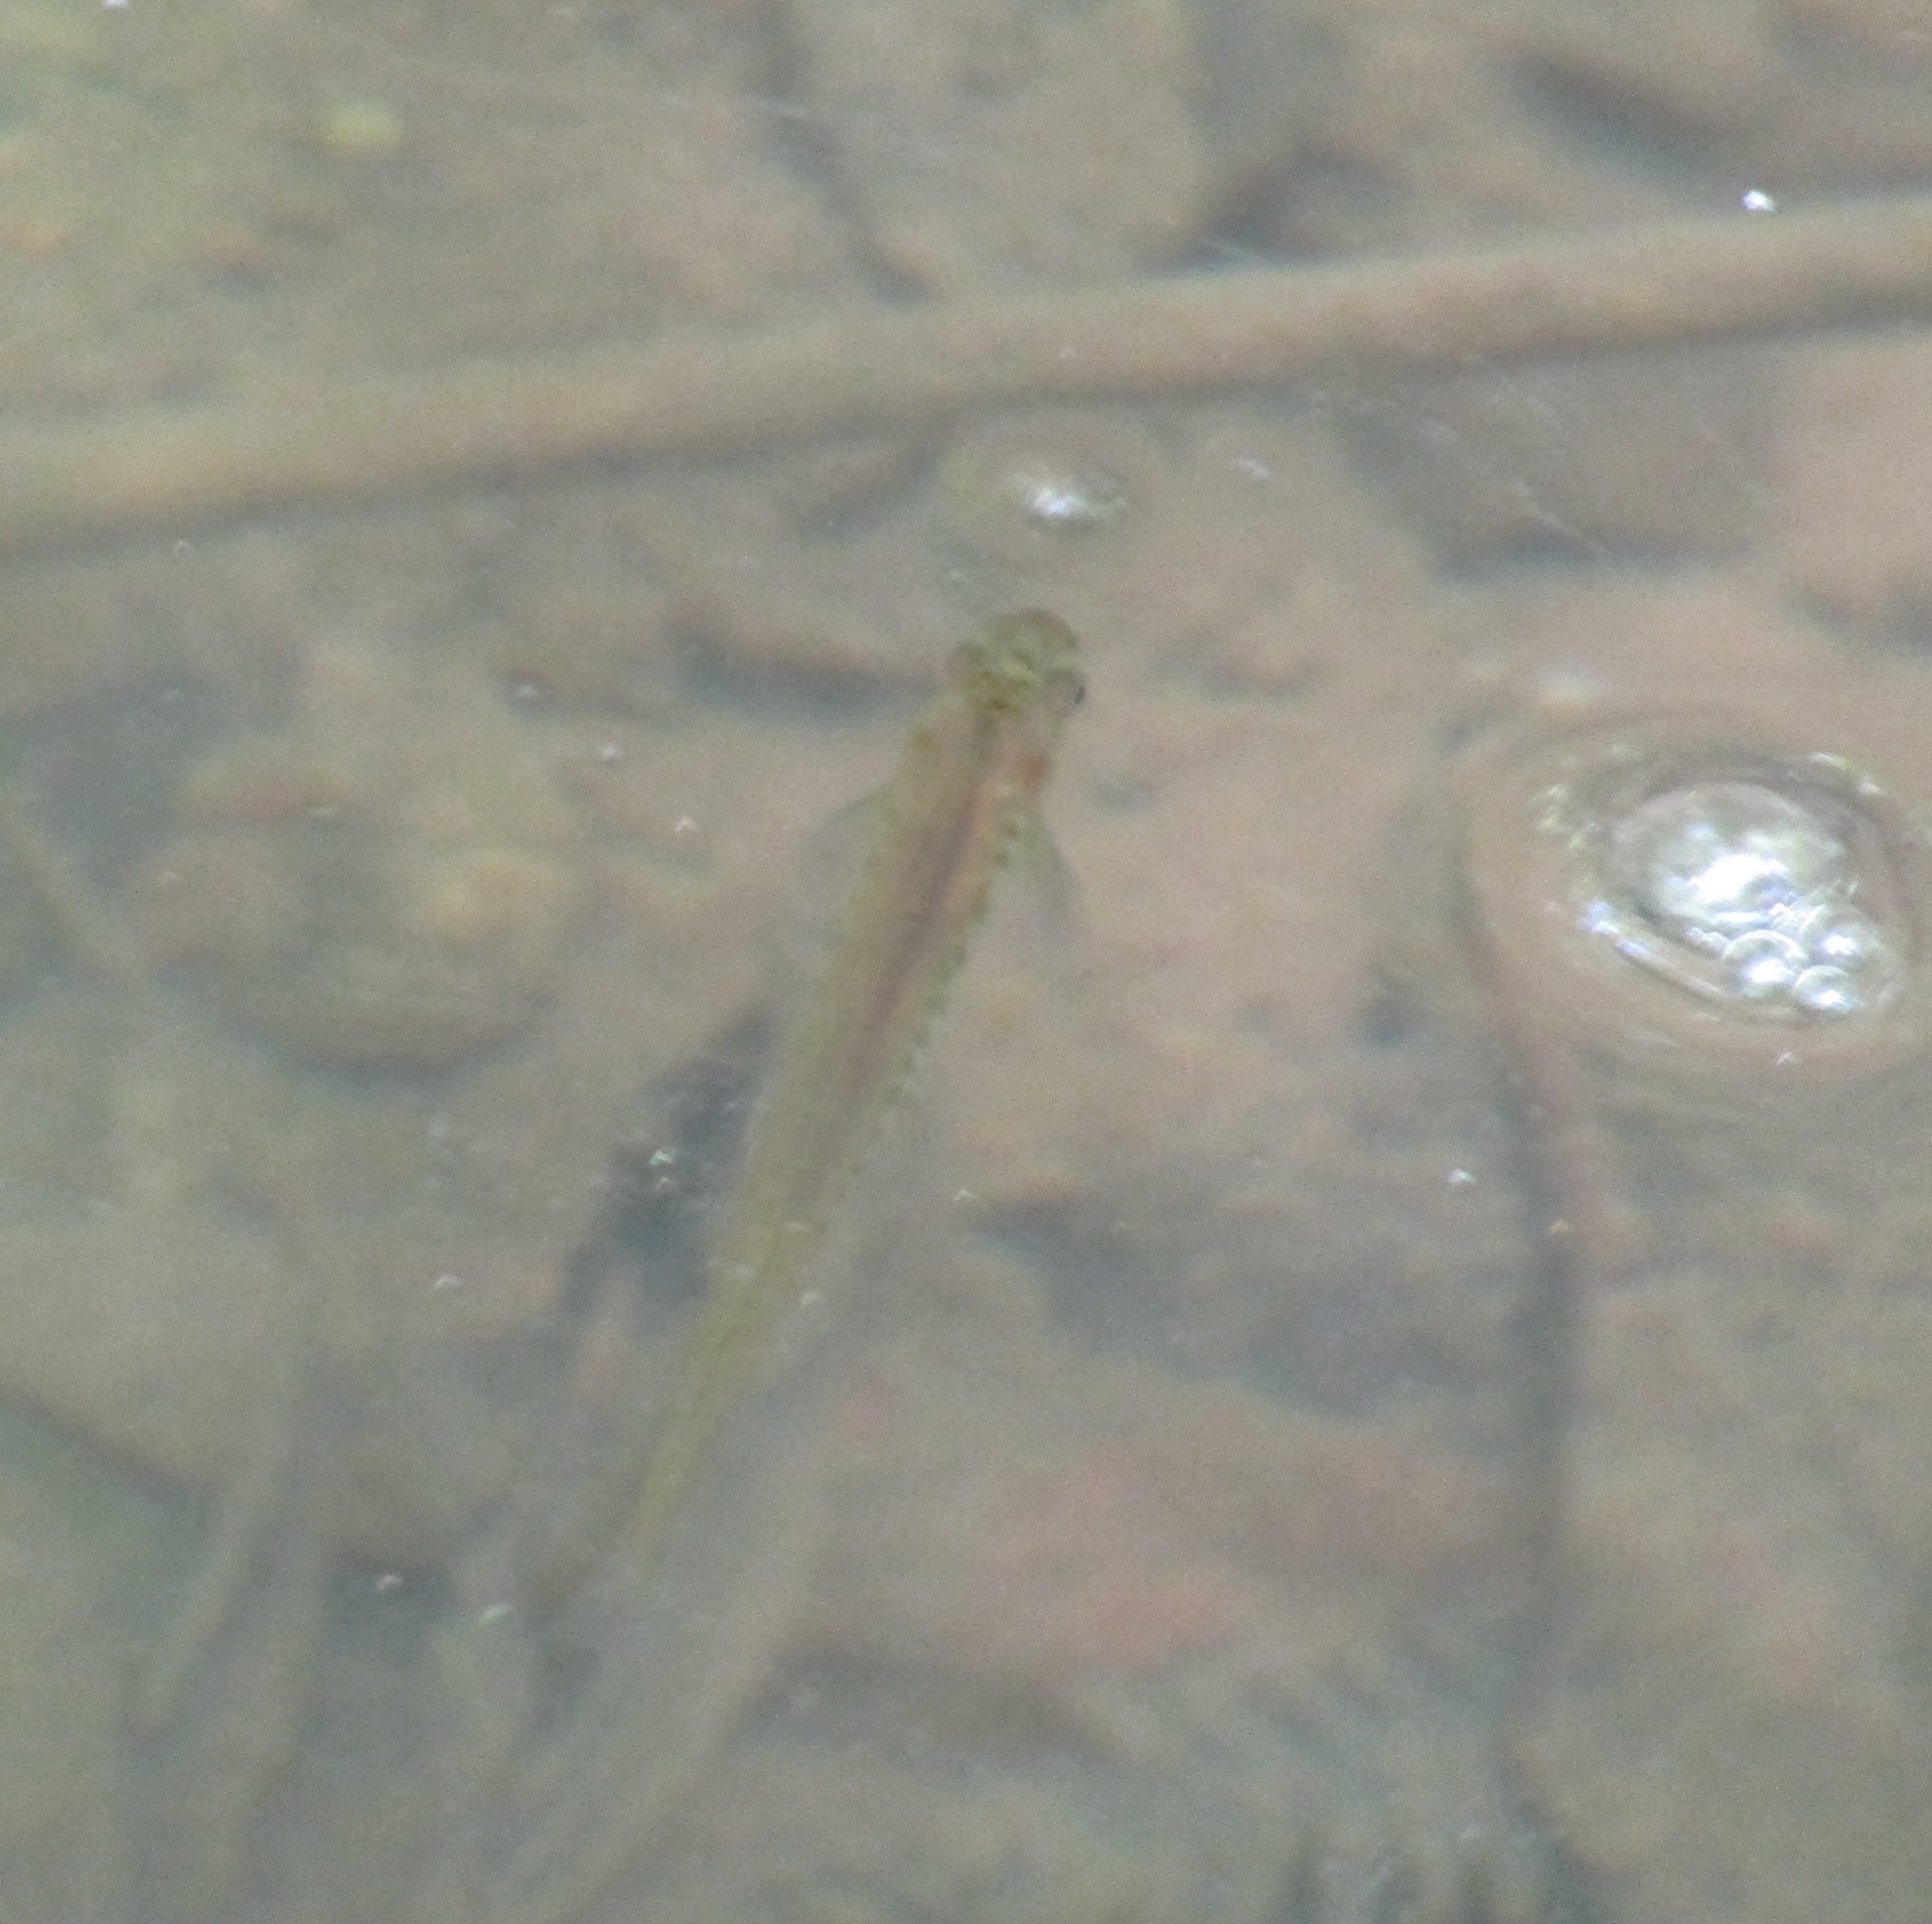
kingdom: Animalia
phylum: Chordata
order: Osmeriformes
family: Galaxiidae
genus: Galaxias
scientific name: Galaxias fasciatus
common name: Banded kokopu
